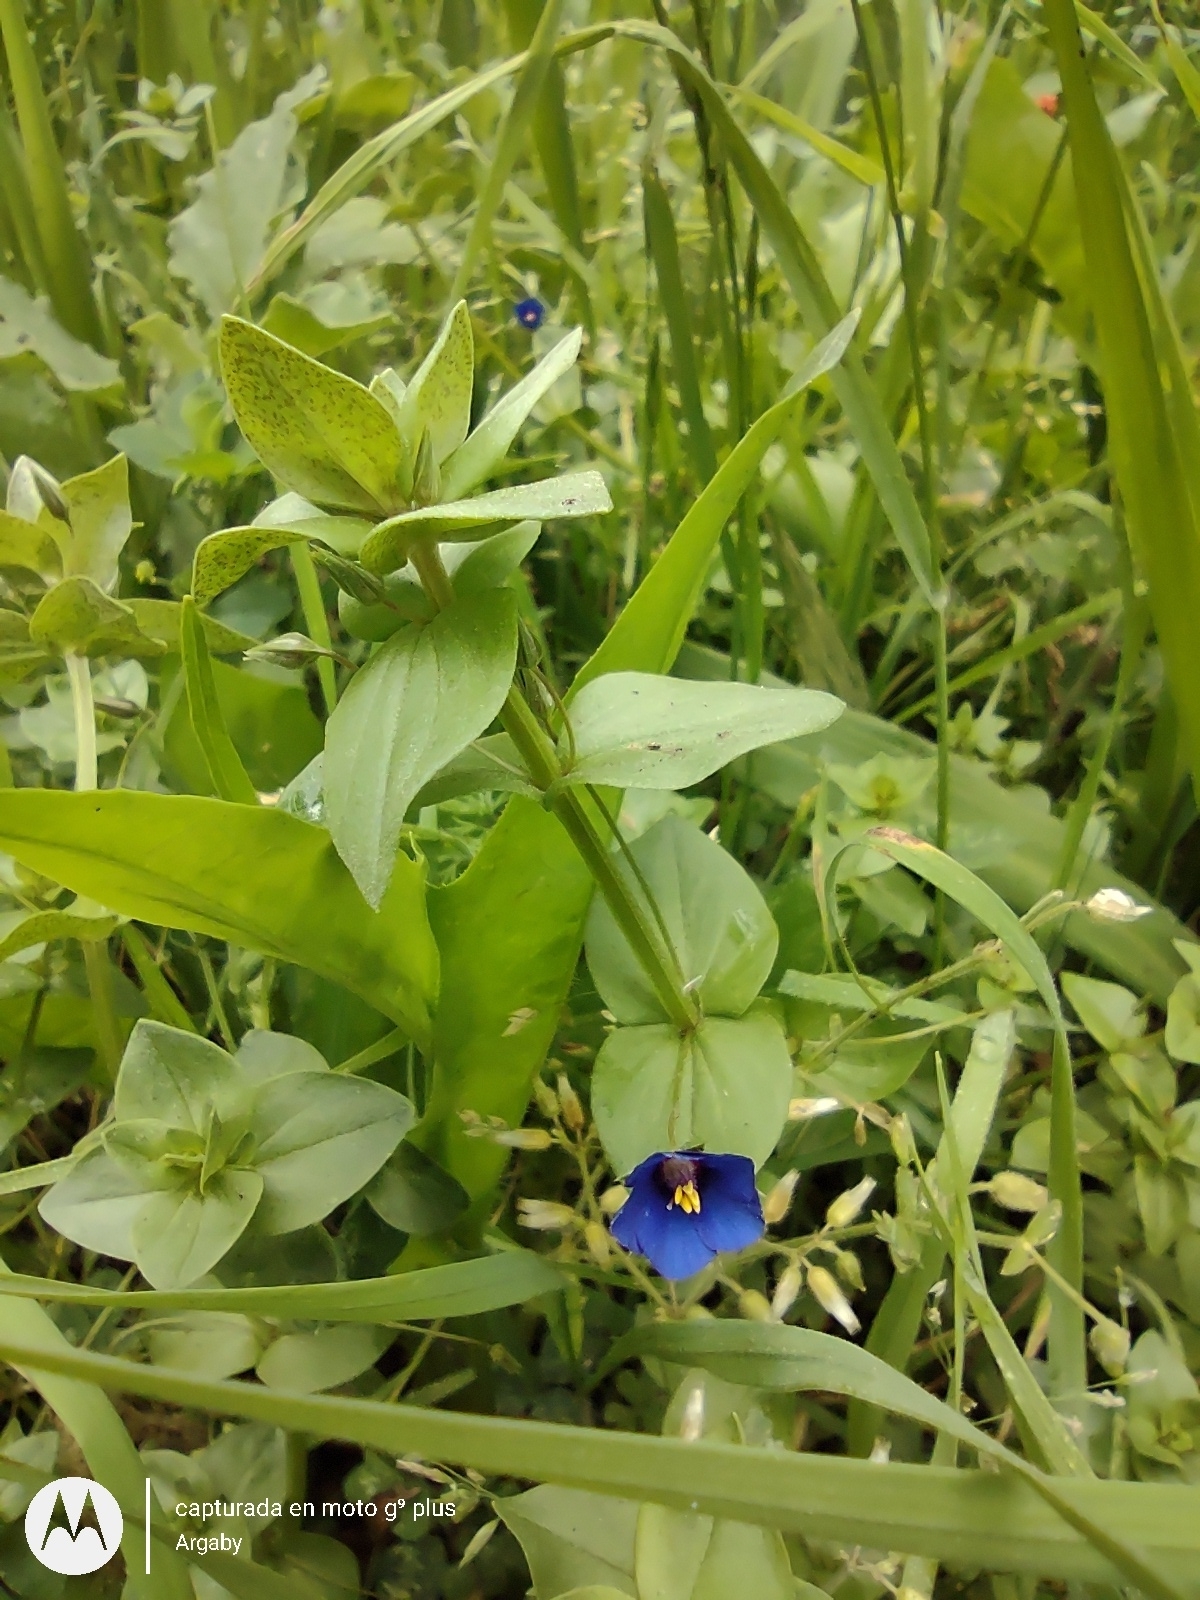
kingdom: Plantae
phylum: Tracheophyta
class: Magnoliopsida
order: Ericales
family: Primulaceae
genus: Lysimachia
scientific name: Lysimachia arvensis
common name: Scarlet pimpernel
